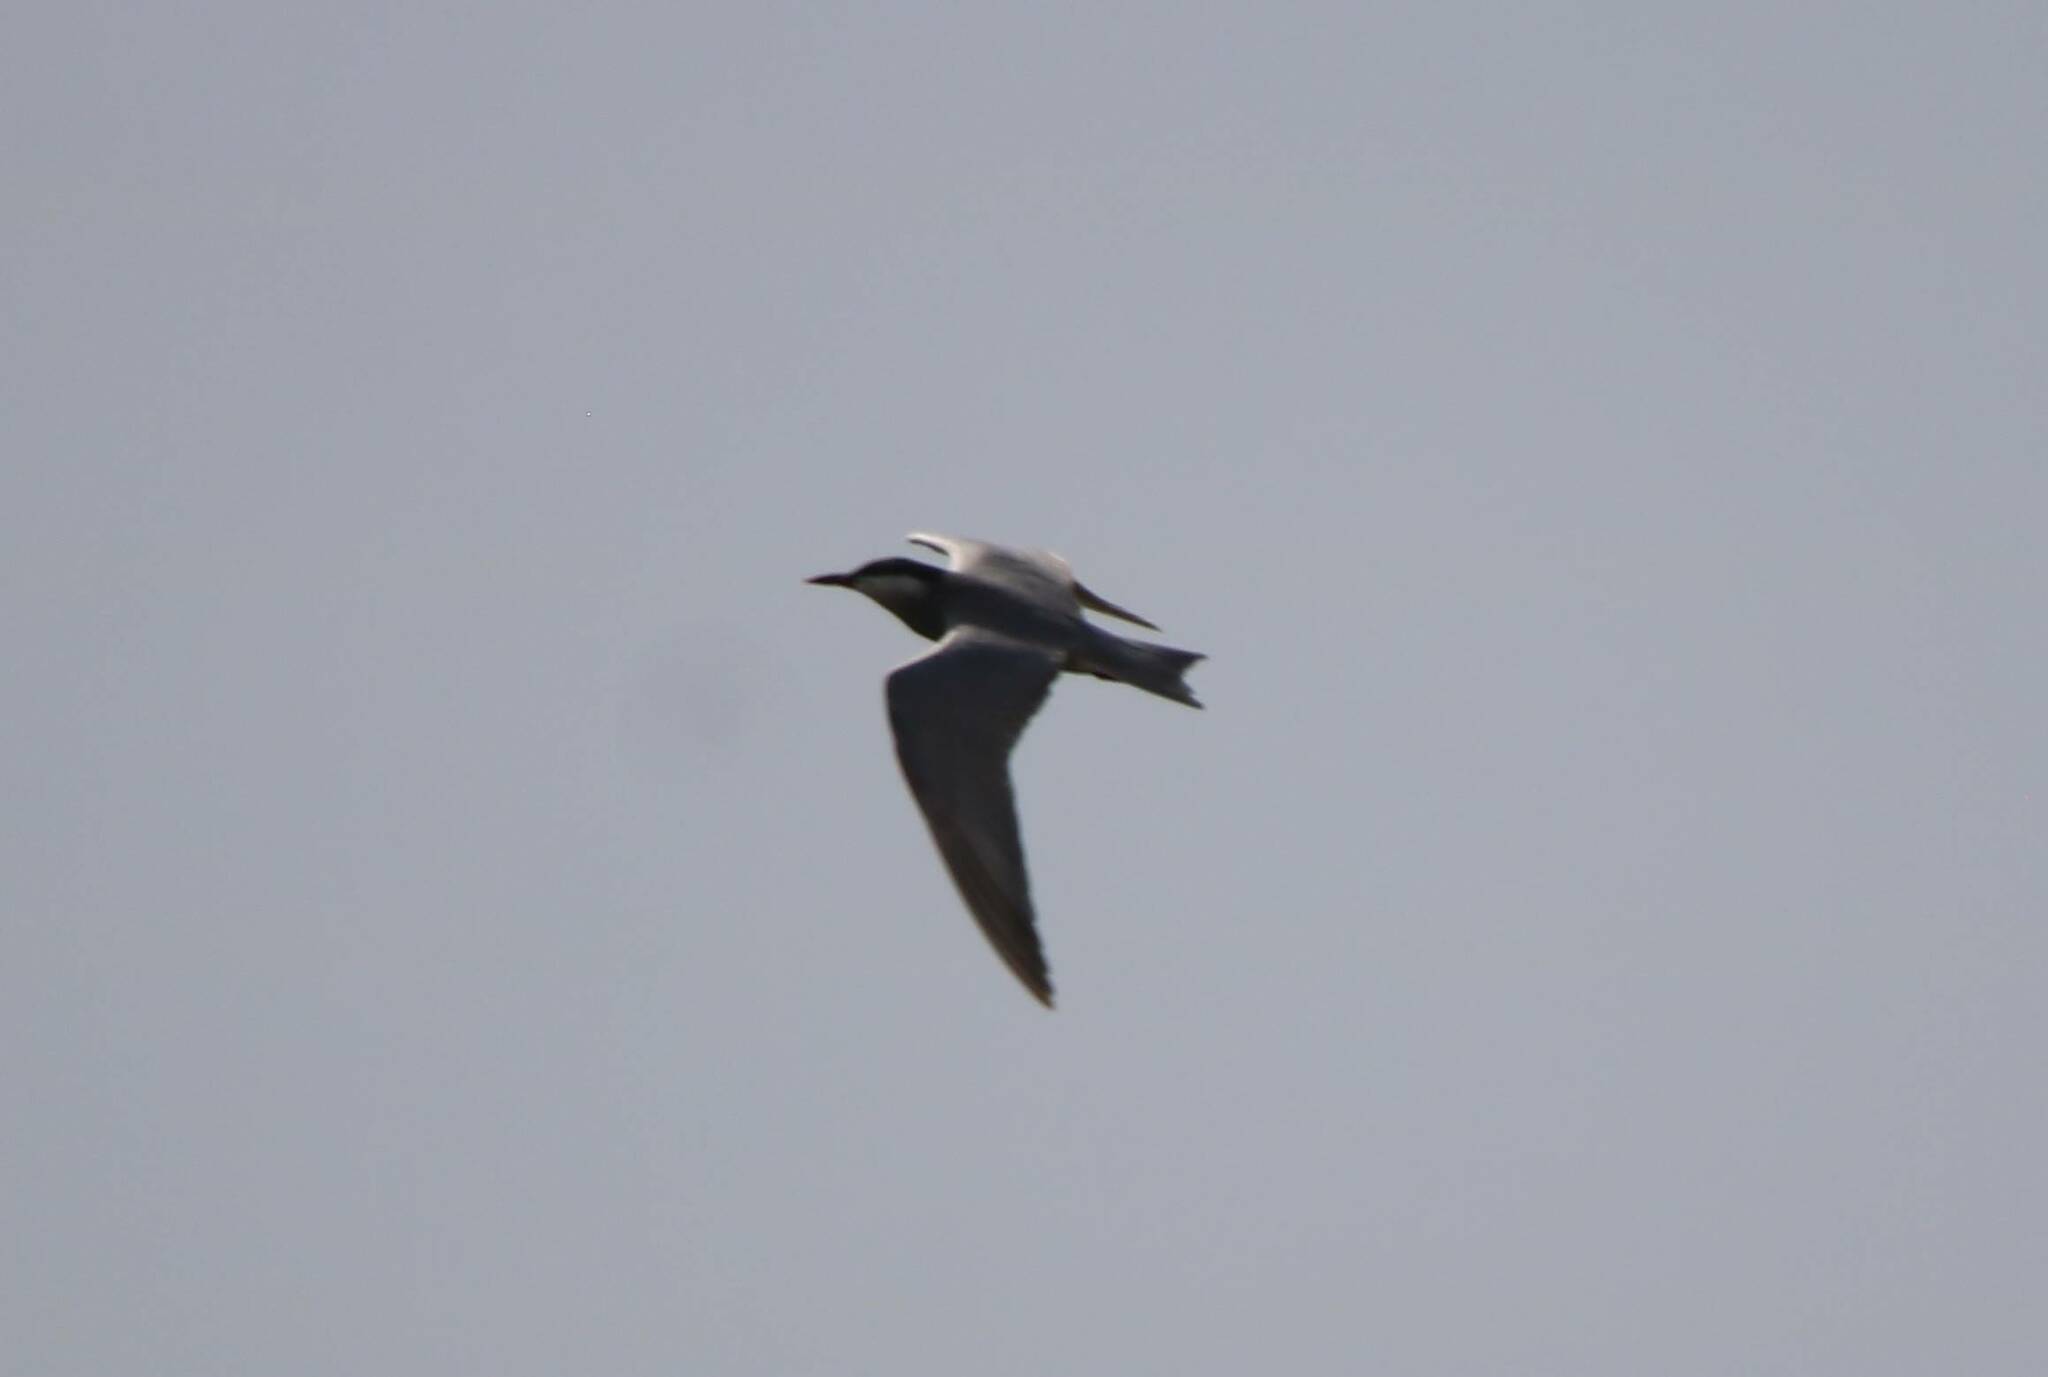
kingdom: Animalia
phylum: Chordata
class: Aves
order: Charadriiformes
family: Laridae
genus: Chlidonias
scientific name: Chlidonias hybrida
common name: Whiskered tern
